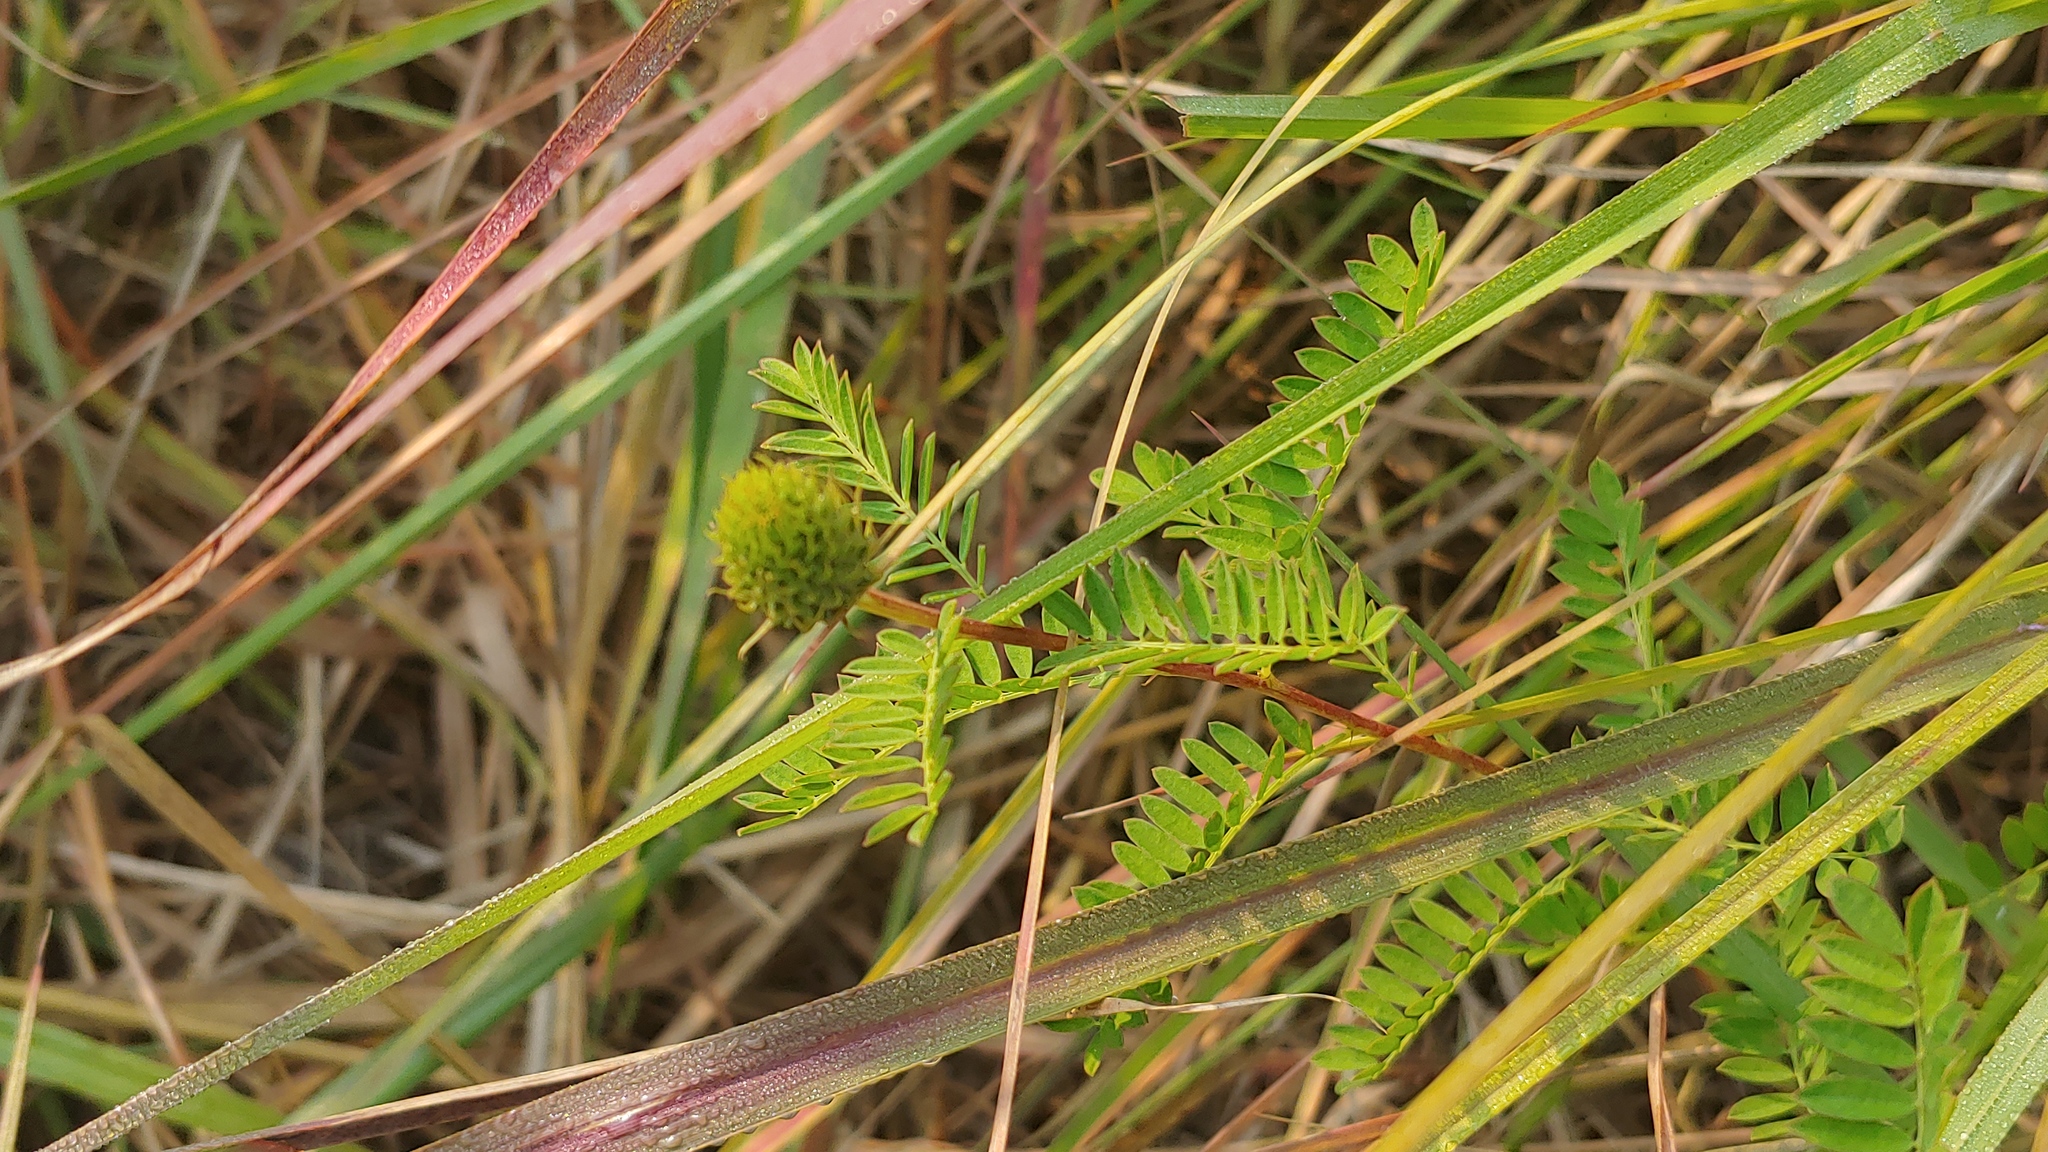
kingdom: Plantae
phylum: Tracheophyta
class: Magnoliopsida
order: Fabales
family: Fabaceae
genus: Dalea
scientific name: Dalea foliosa
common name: Leafy prairie-clover
